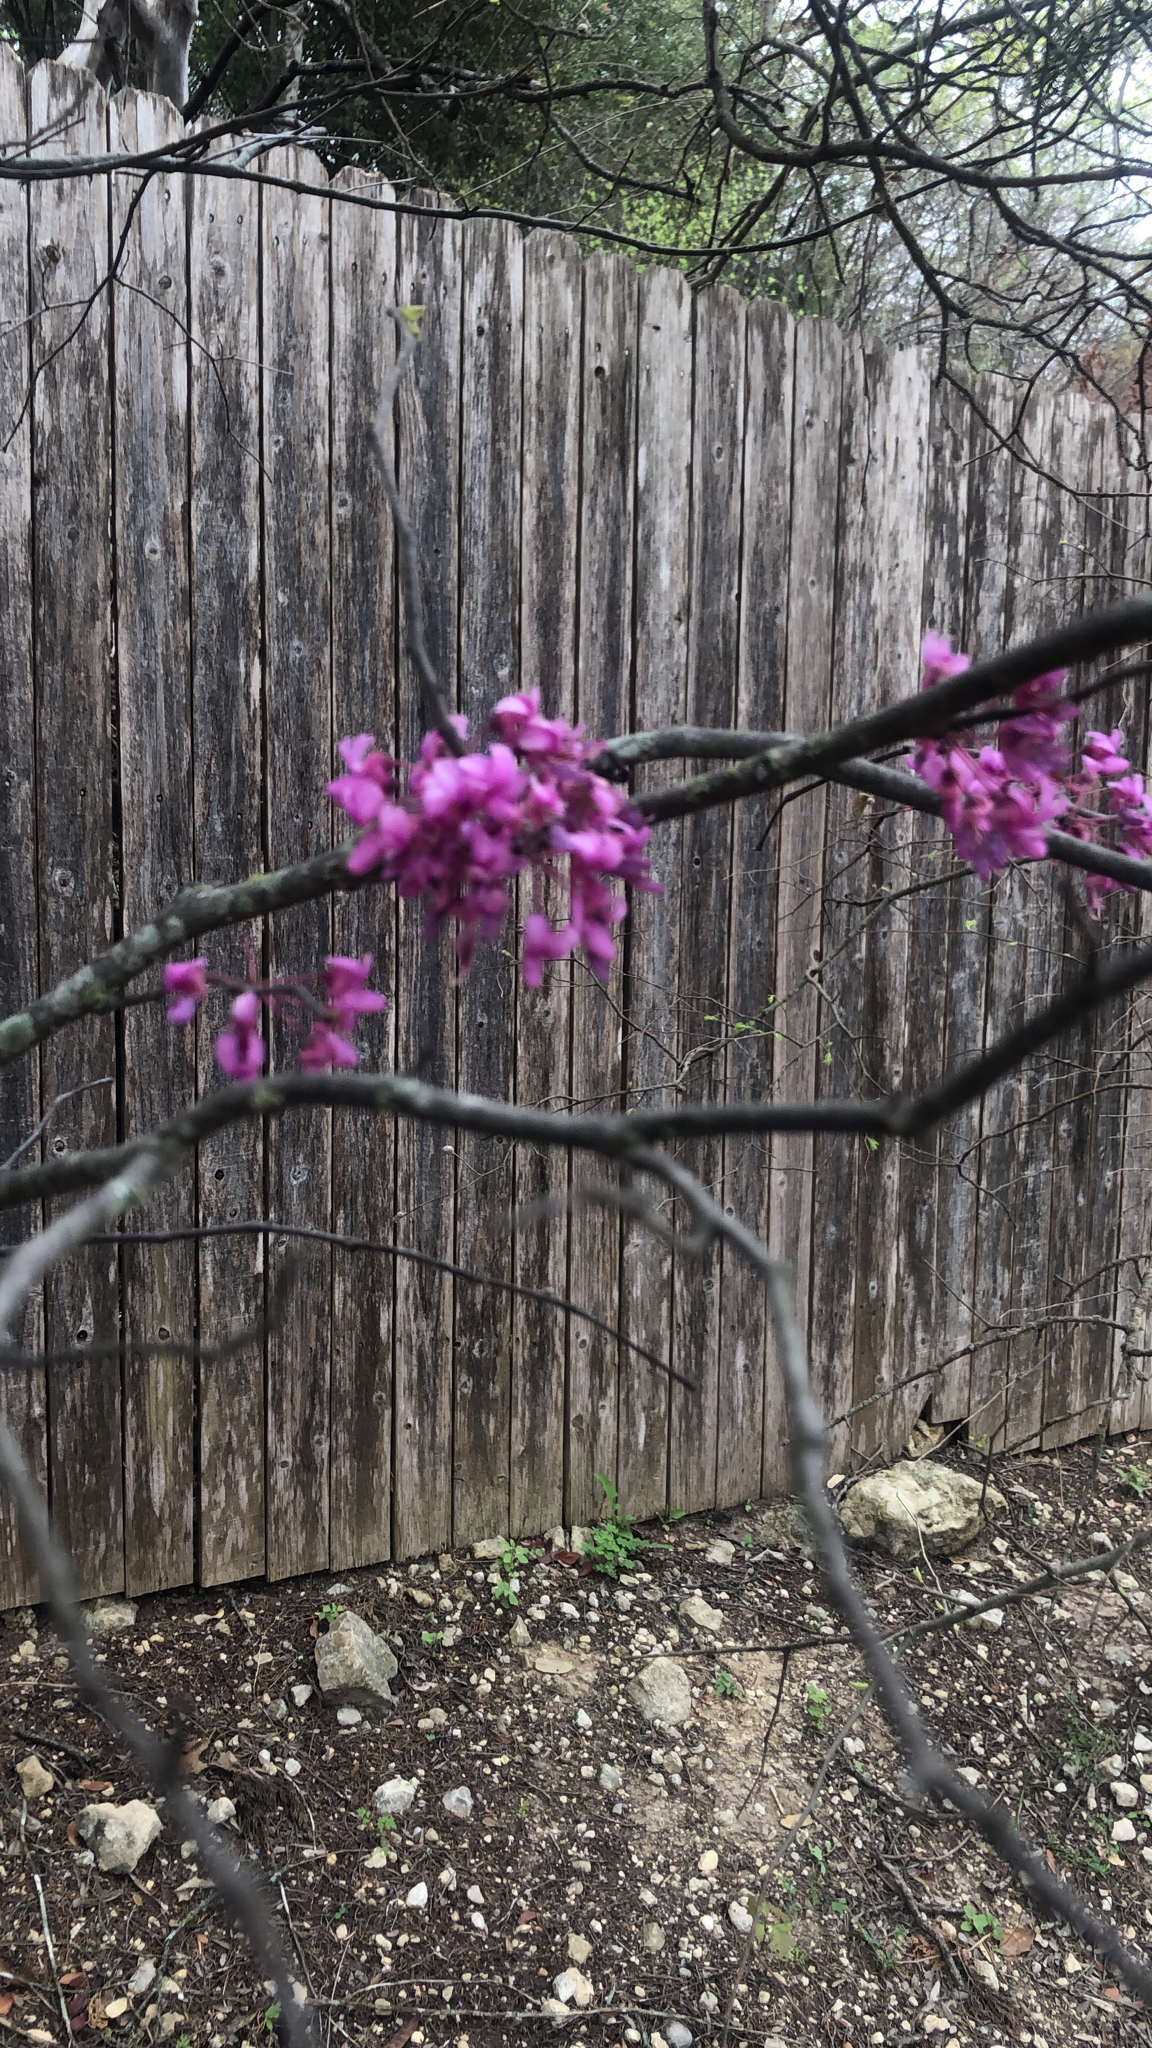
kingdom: Plantae
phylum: Tracheophyta
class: Magnoliopsida
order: Fabales
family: Fabaceae
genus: Cercis
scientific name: Cercis canadensis
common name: Eastern redbud
